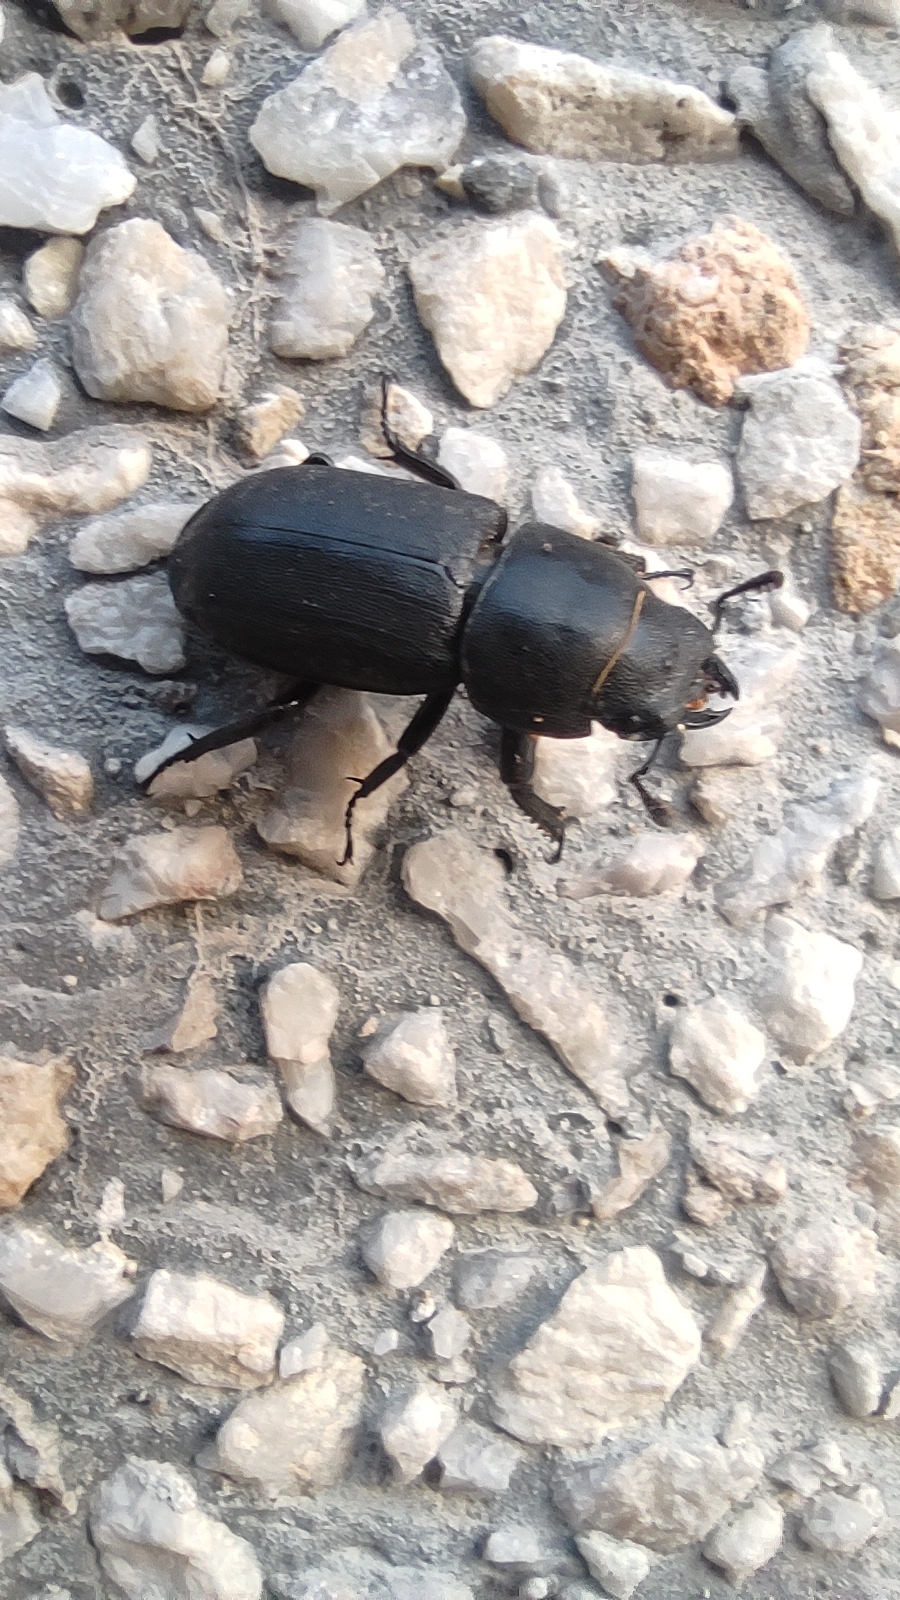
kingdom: Animalia
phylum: Arthropoda
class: Insecta
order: Coleoptera
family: Lucanidae
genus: Dorcus
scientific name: Dorcus parallelipipedus
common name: Lesser stag beetle
